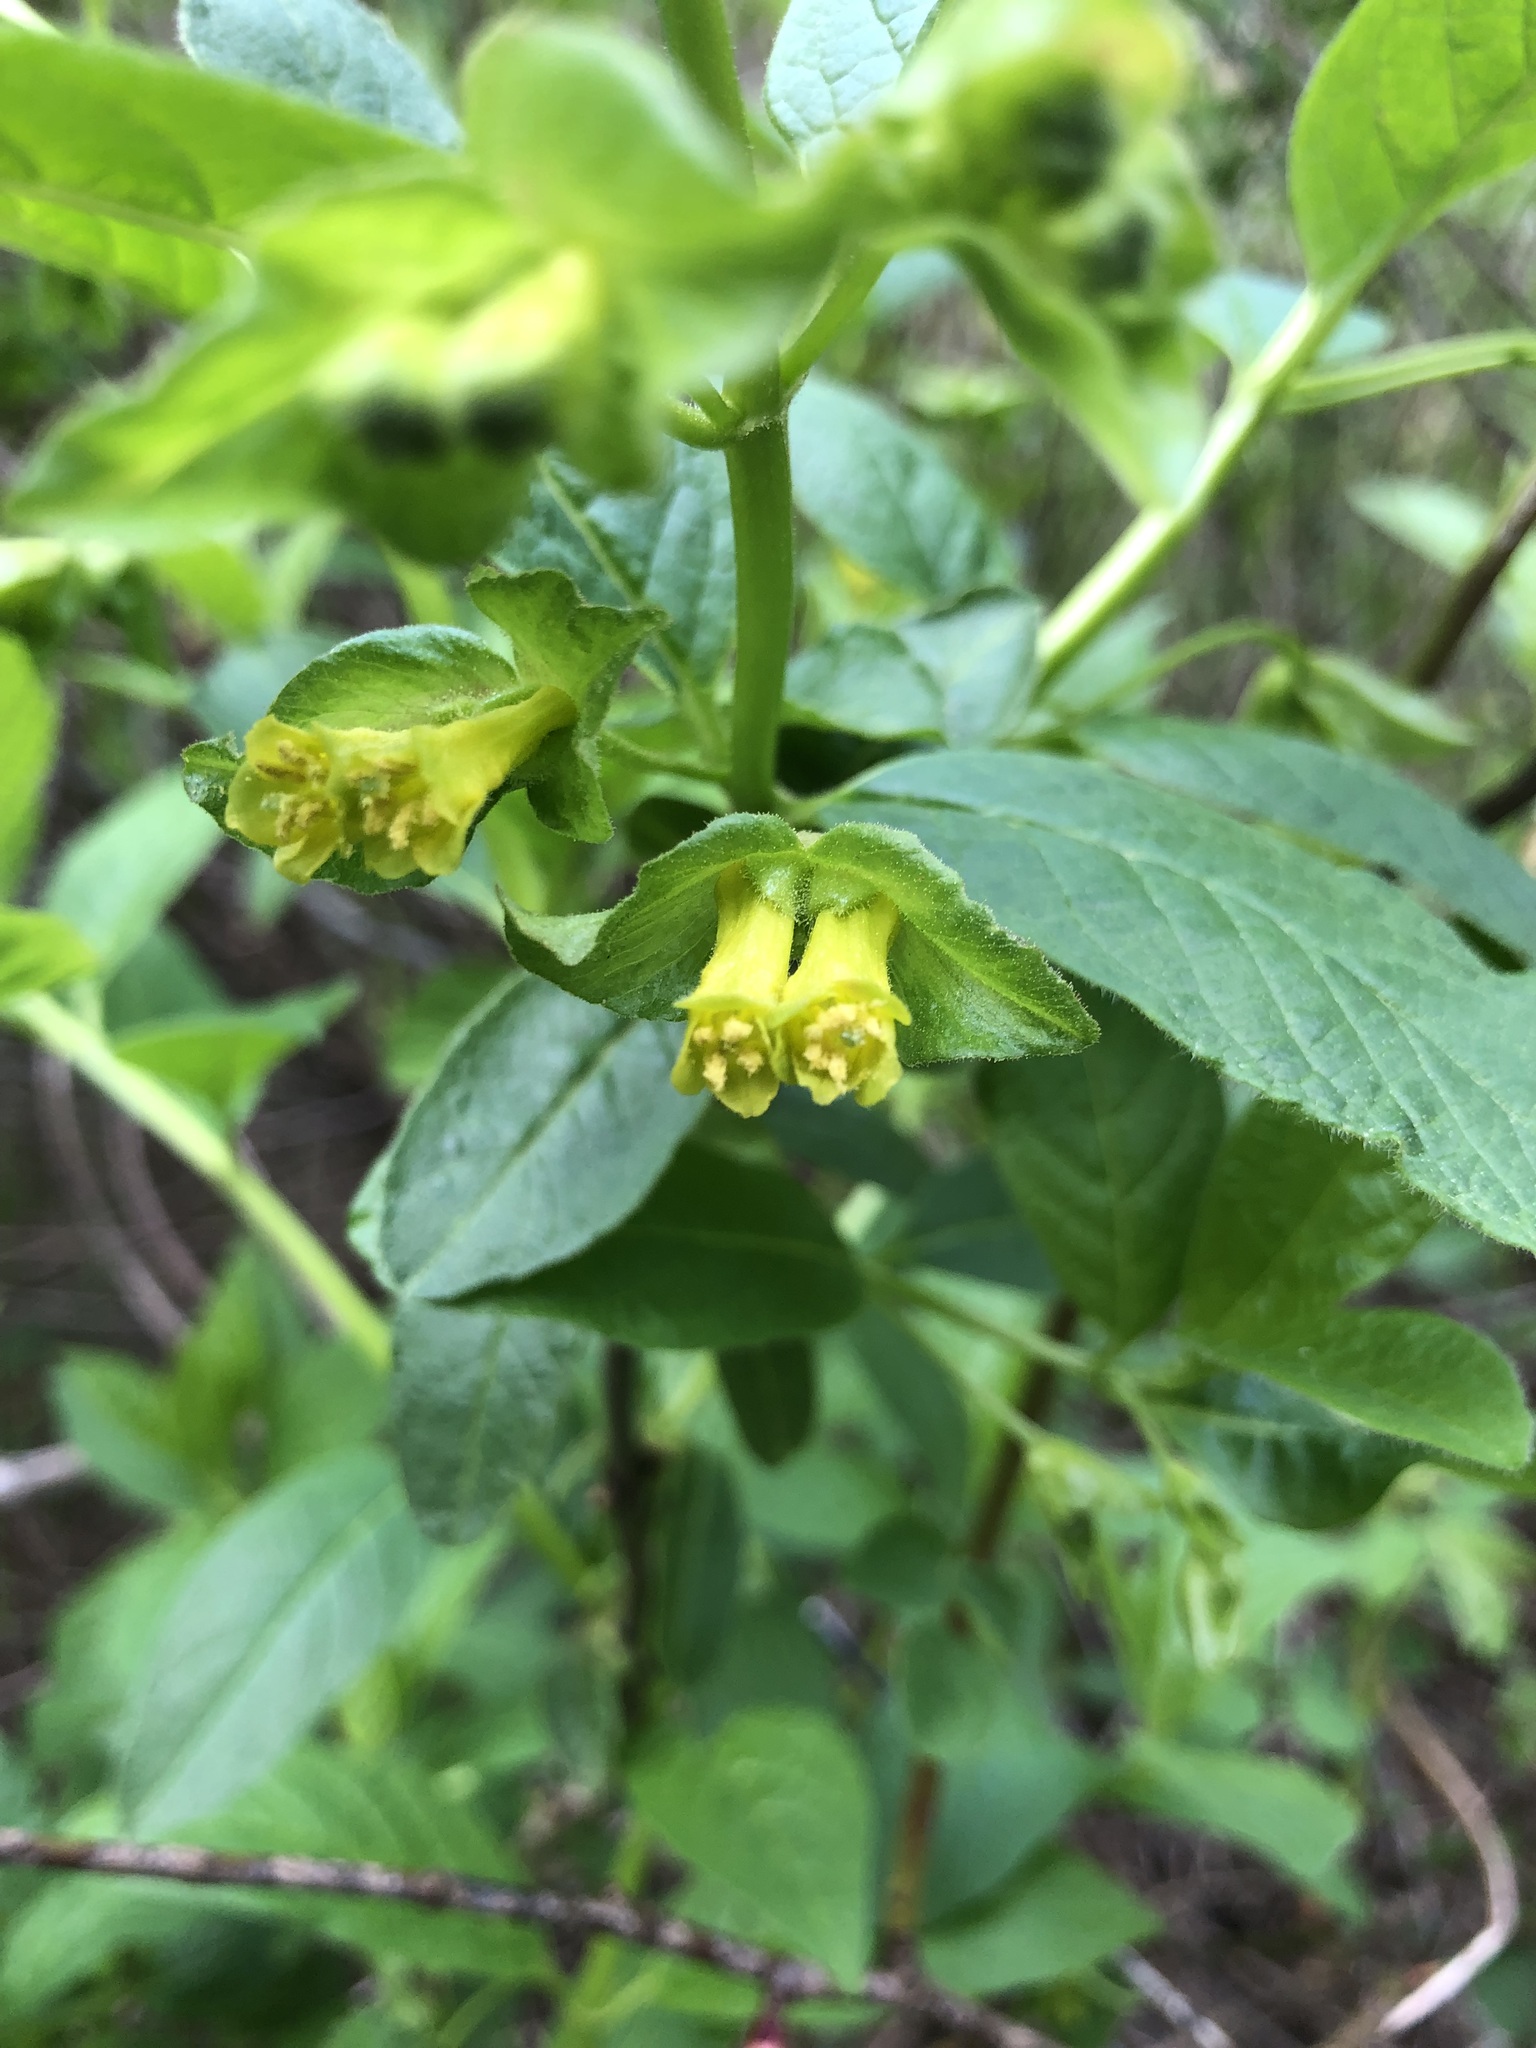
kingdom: Plantae
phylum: Tracheophyta
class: Magnoliopsida
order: Dipsacales
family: Caprifoliaceae
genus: Lonicera
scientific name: Lonicera involucrata
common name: Californian honeysuckle
